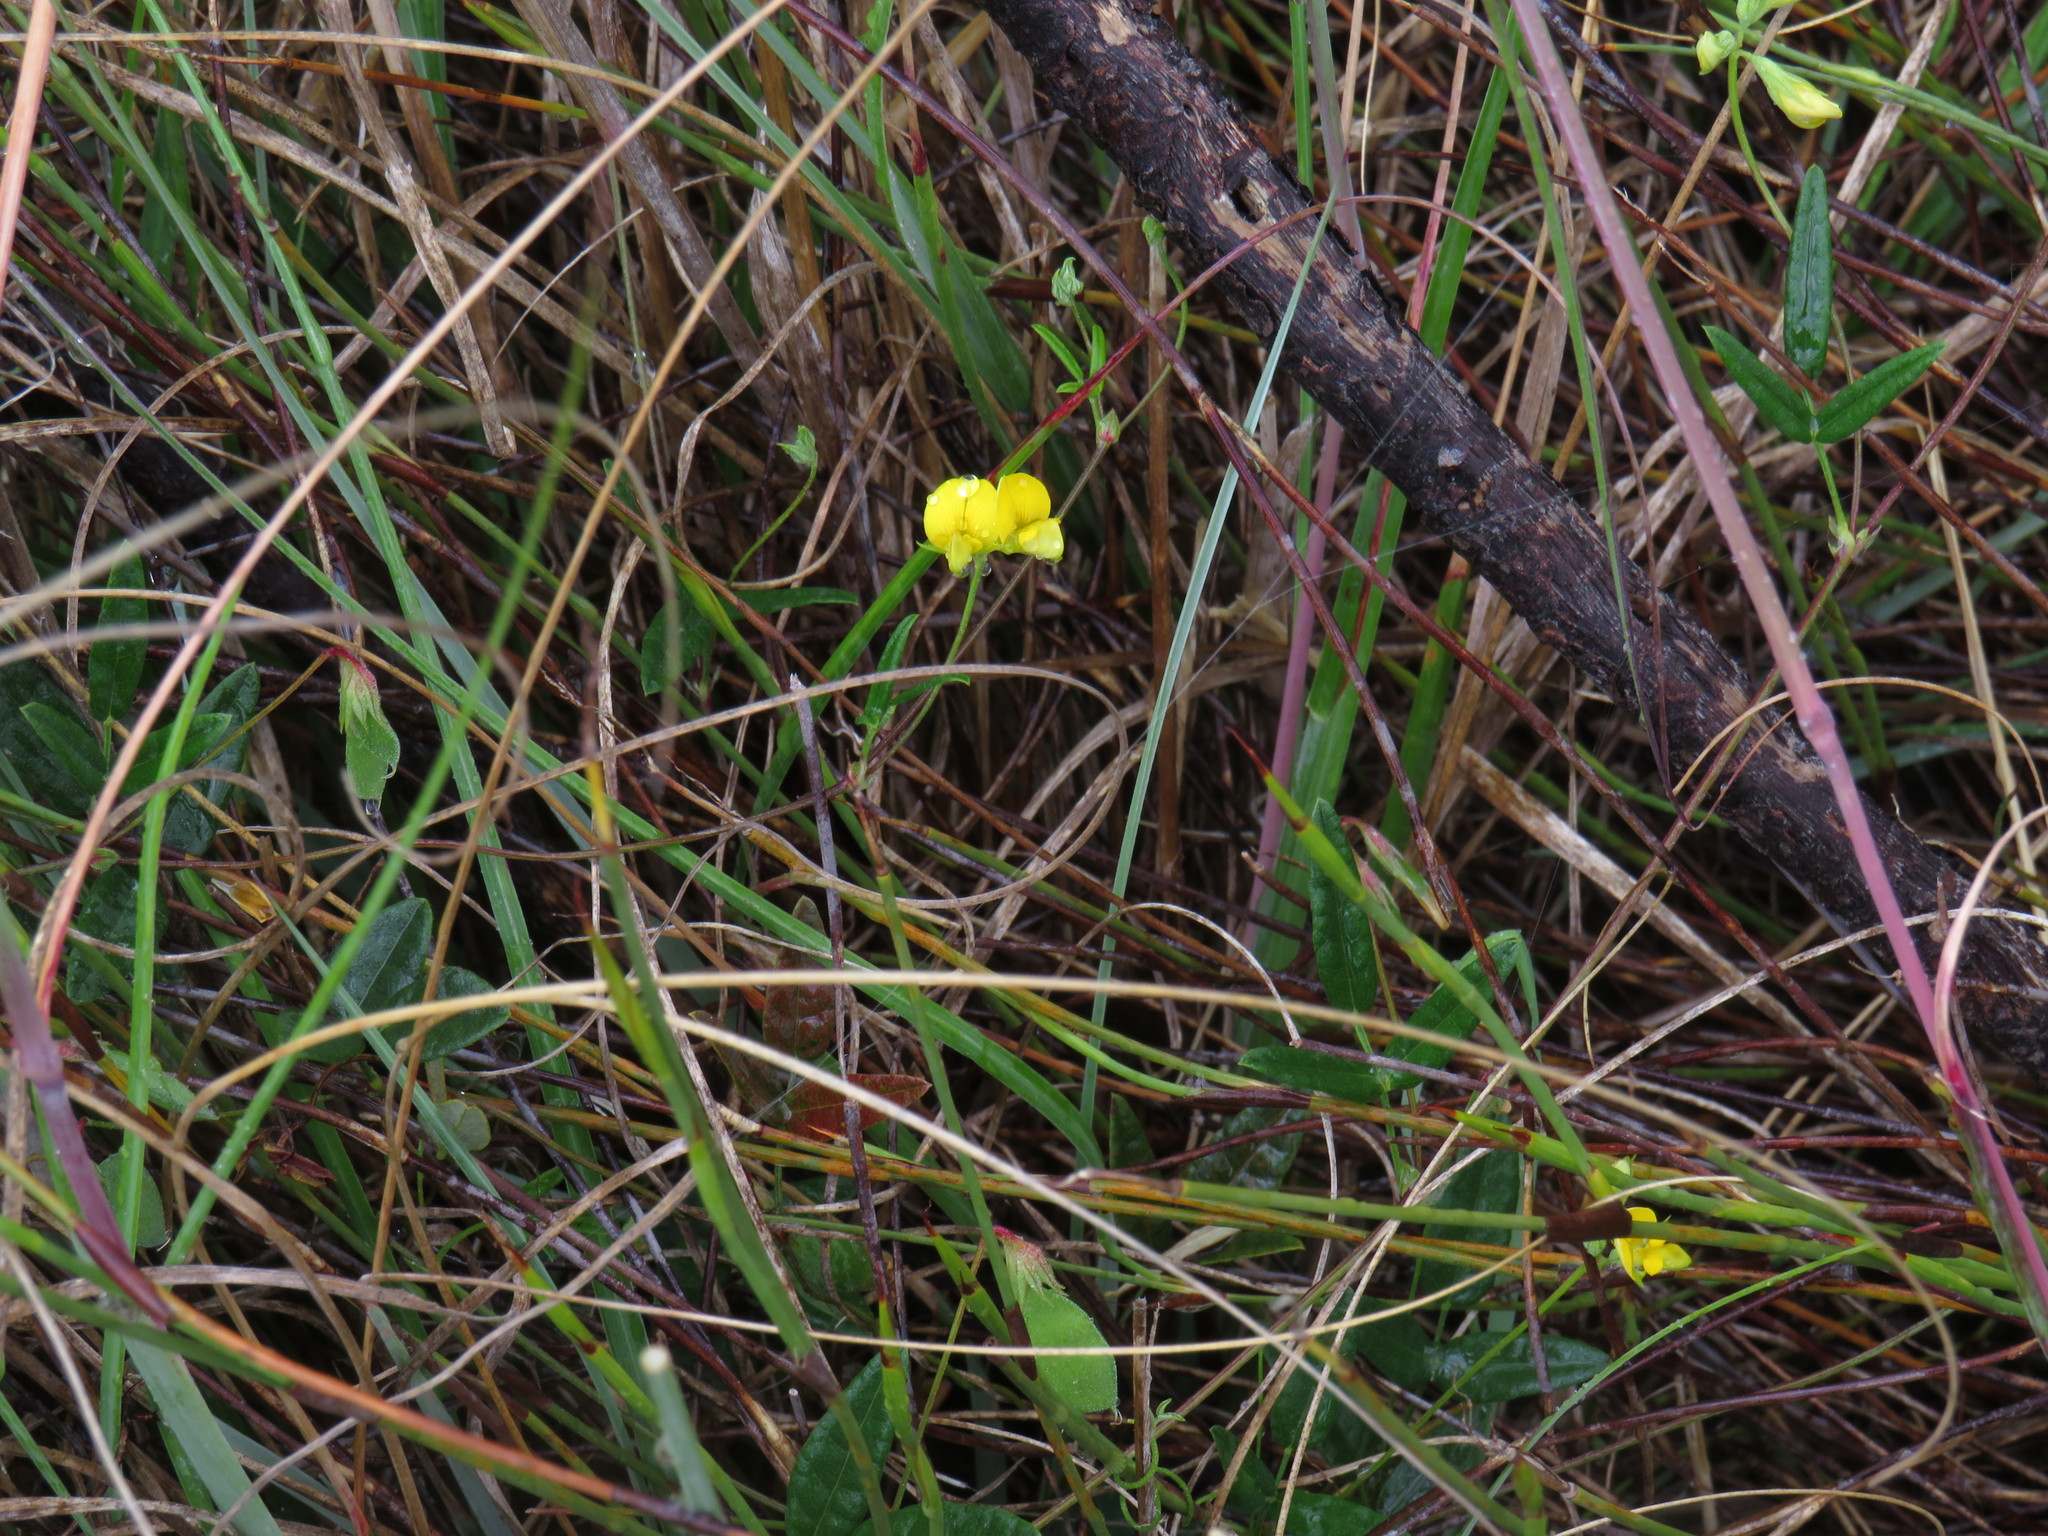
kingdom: Plantae
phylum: Tracheophyta
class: Magnoliopsida
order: Fabales
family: Fabaceae
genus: Rhynchosia
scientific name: Rhynchosia capensis
